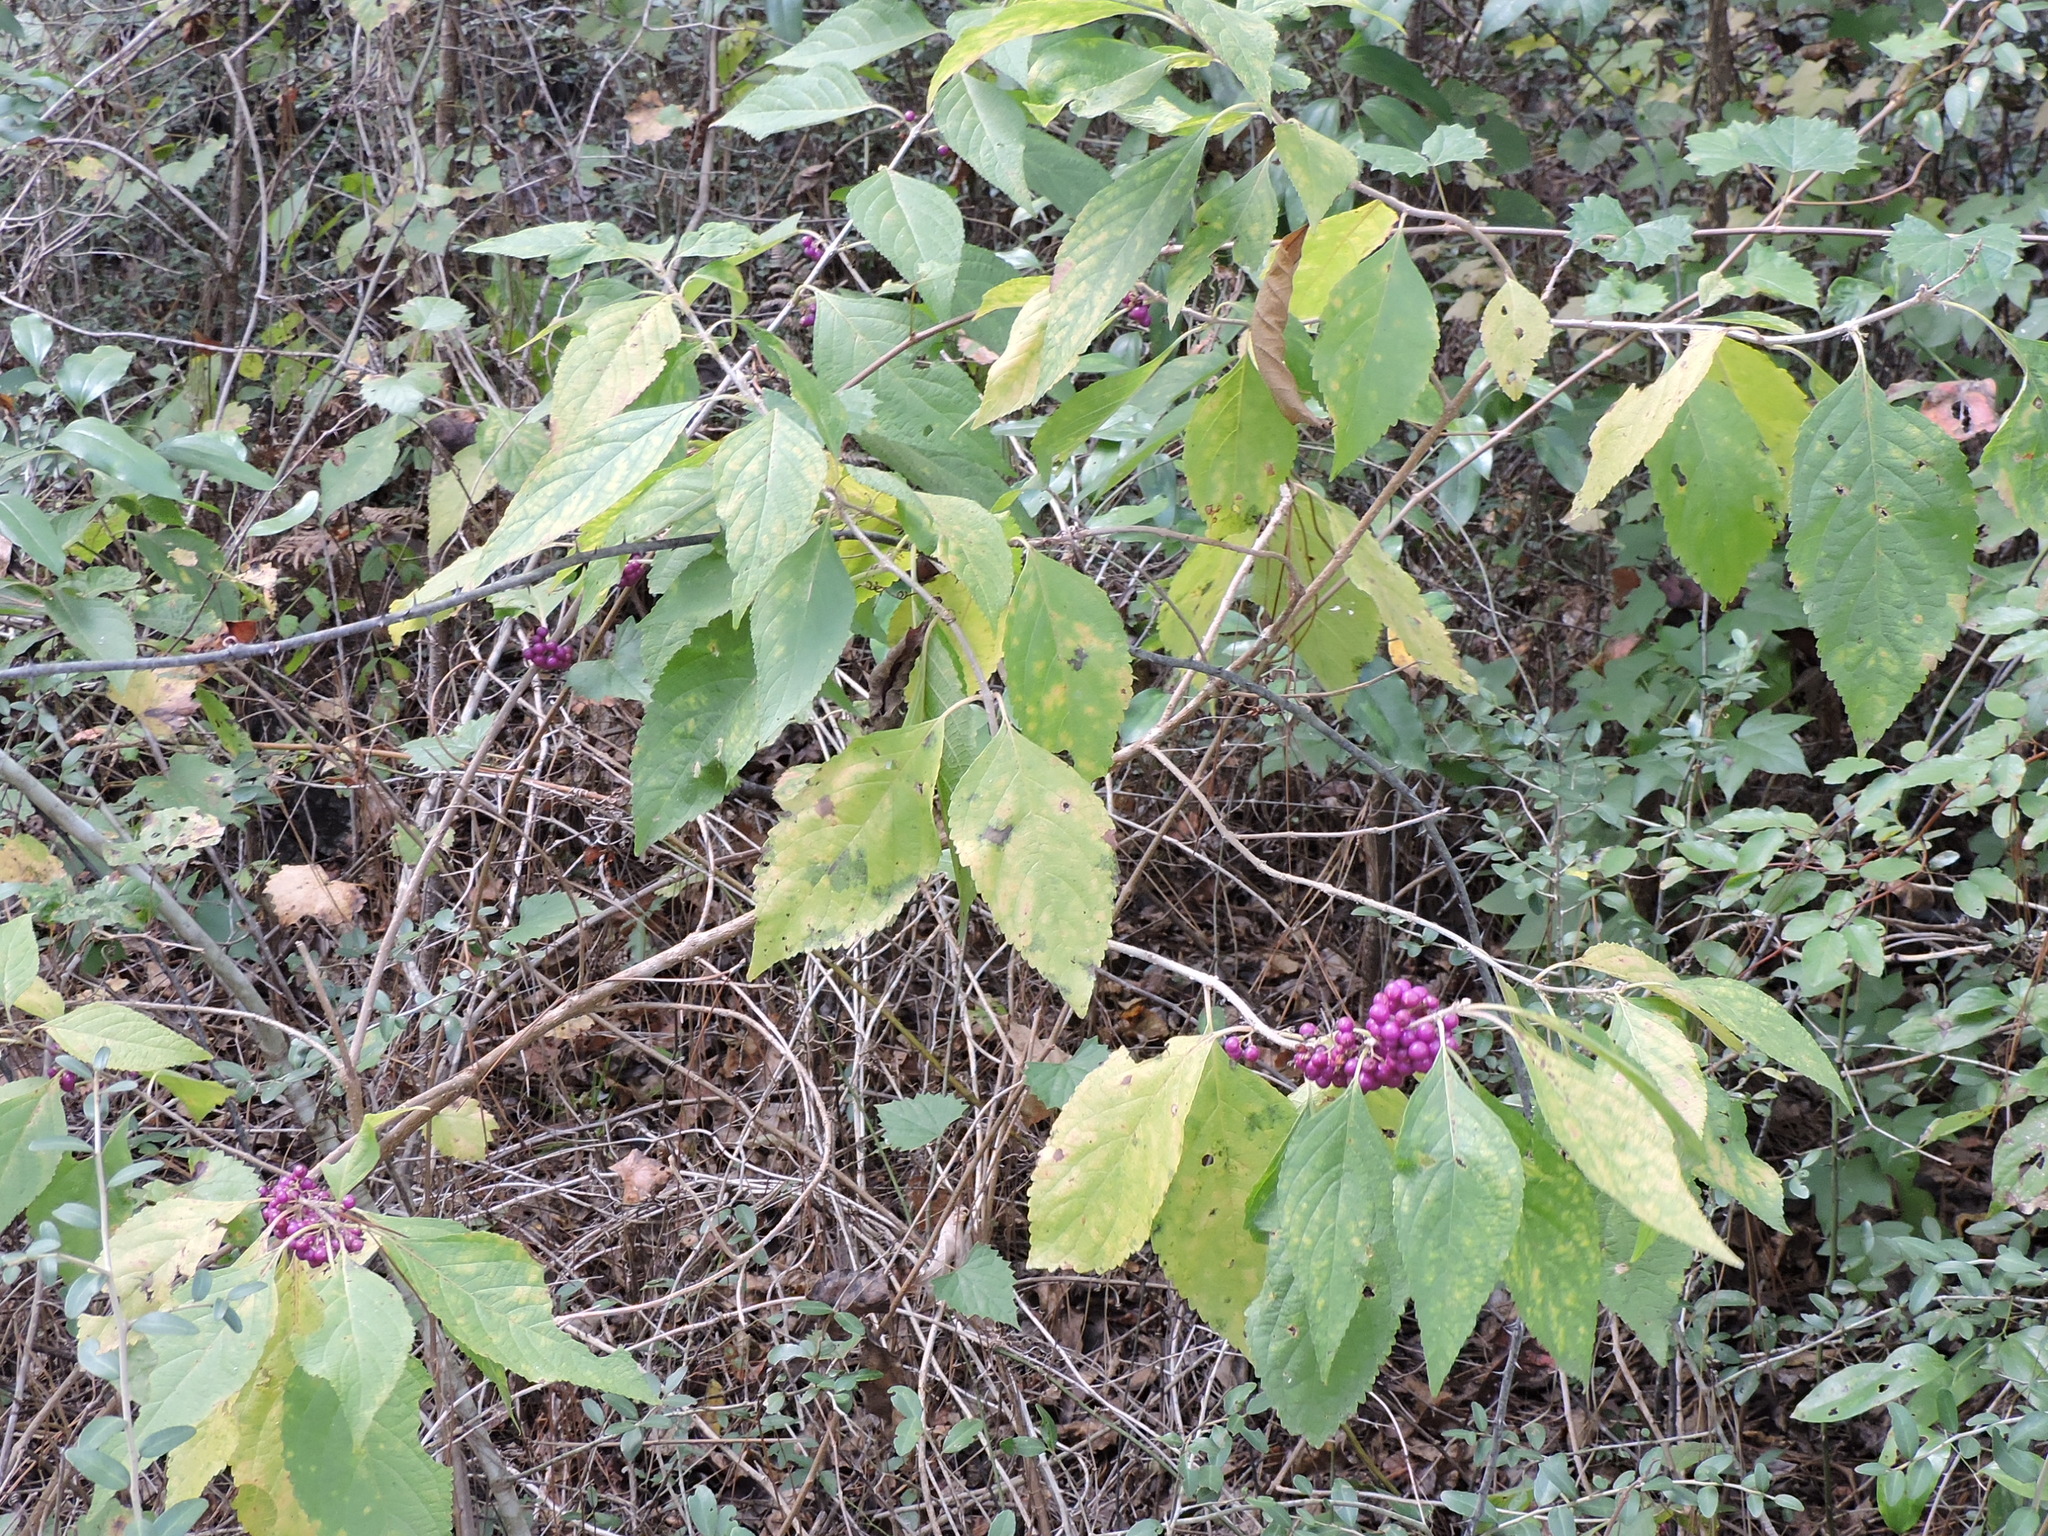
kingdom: Plantae
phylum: Tracheophyta
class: Magnoliopsida
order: Lamiales
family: Lamiaceae
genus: Callicarpa
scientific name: Callicarpa americana
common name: American beautyberry
